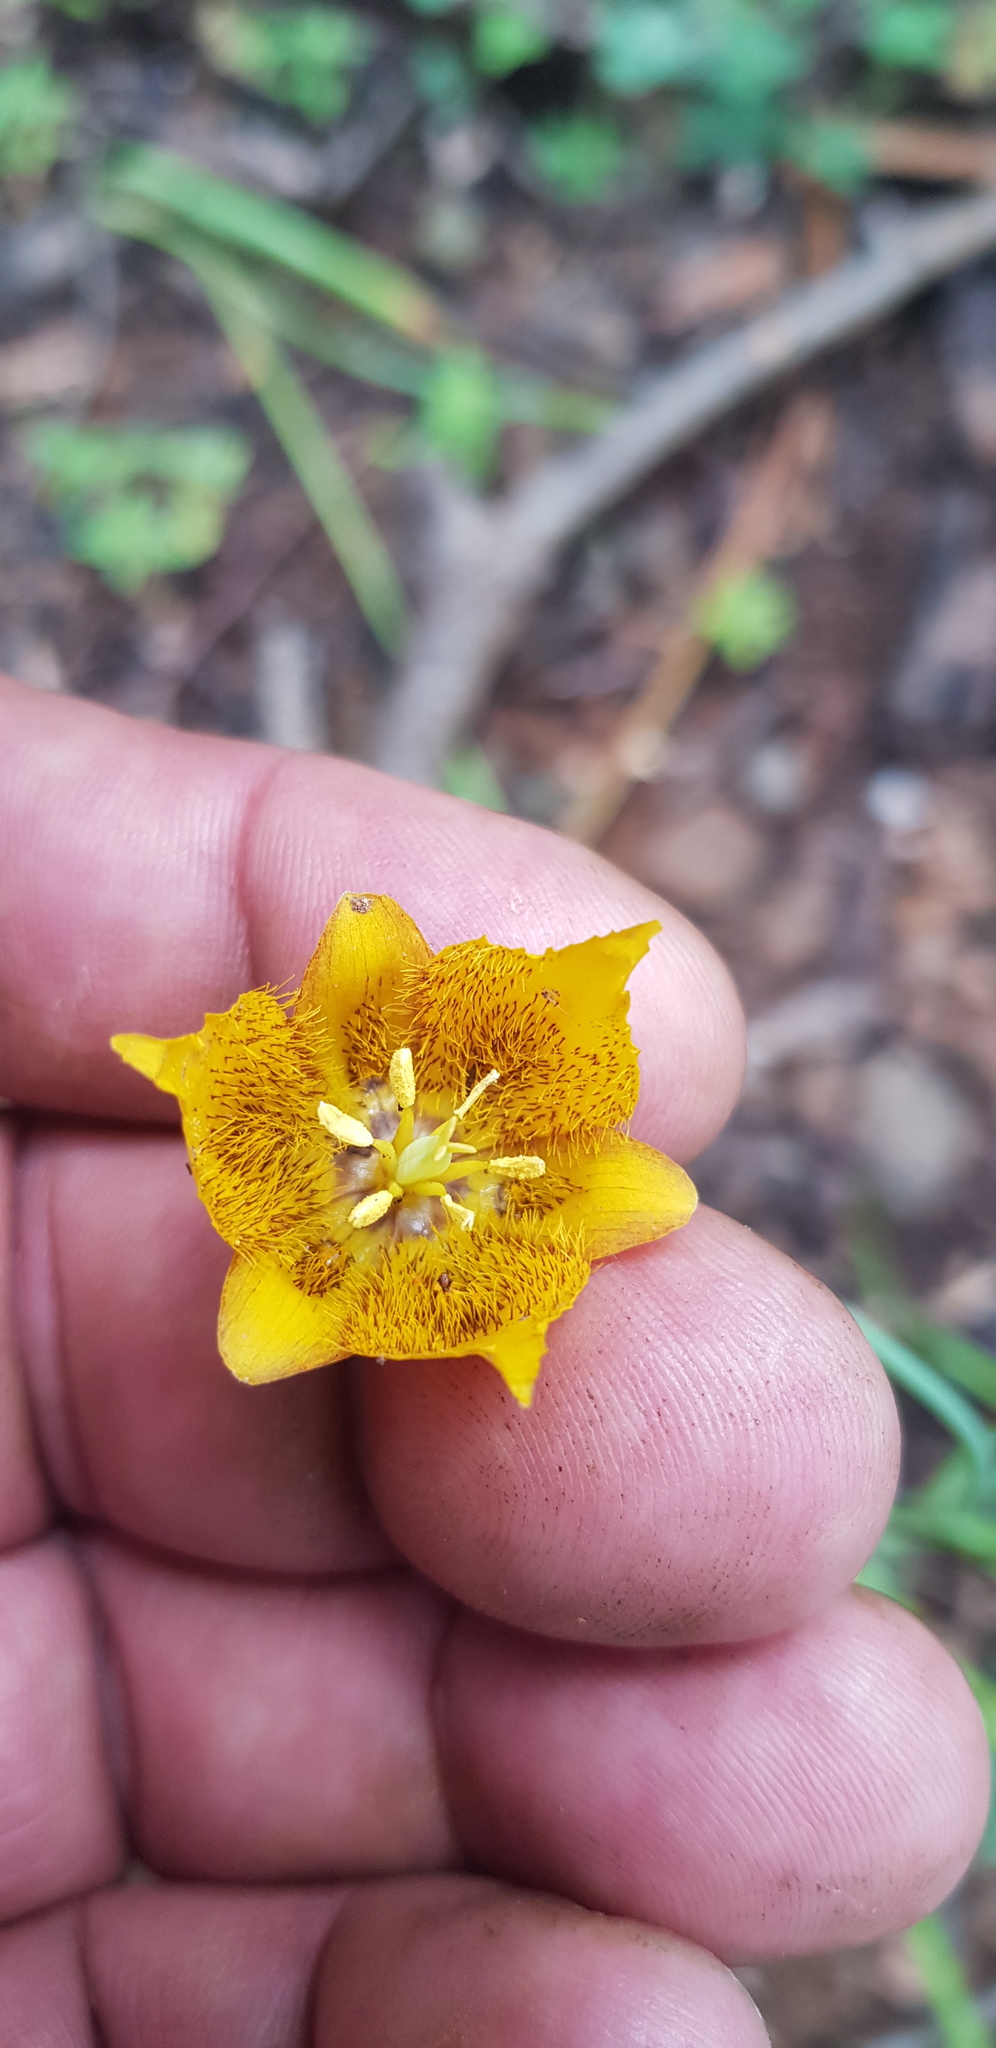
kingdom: Plantae
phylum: Tracheophyta
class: Liliopsida
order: Liliales
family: Liliaceae
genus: Calochortus
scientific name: Calochortus barbatus
